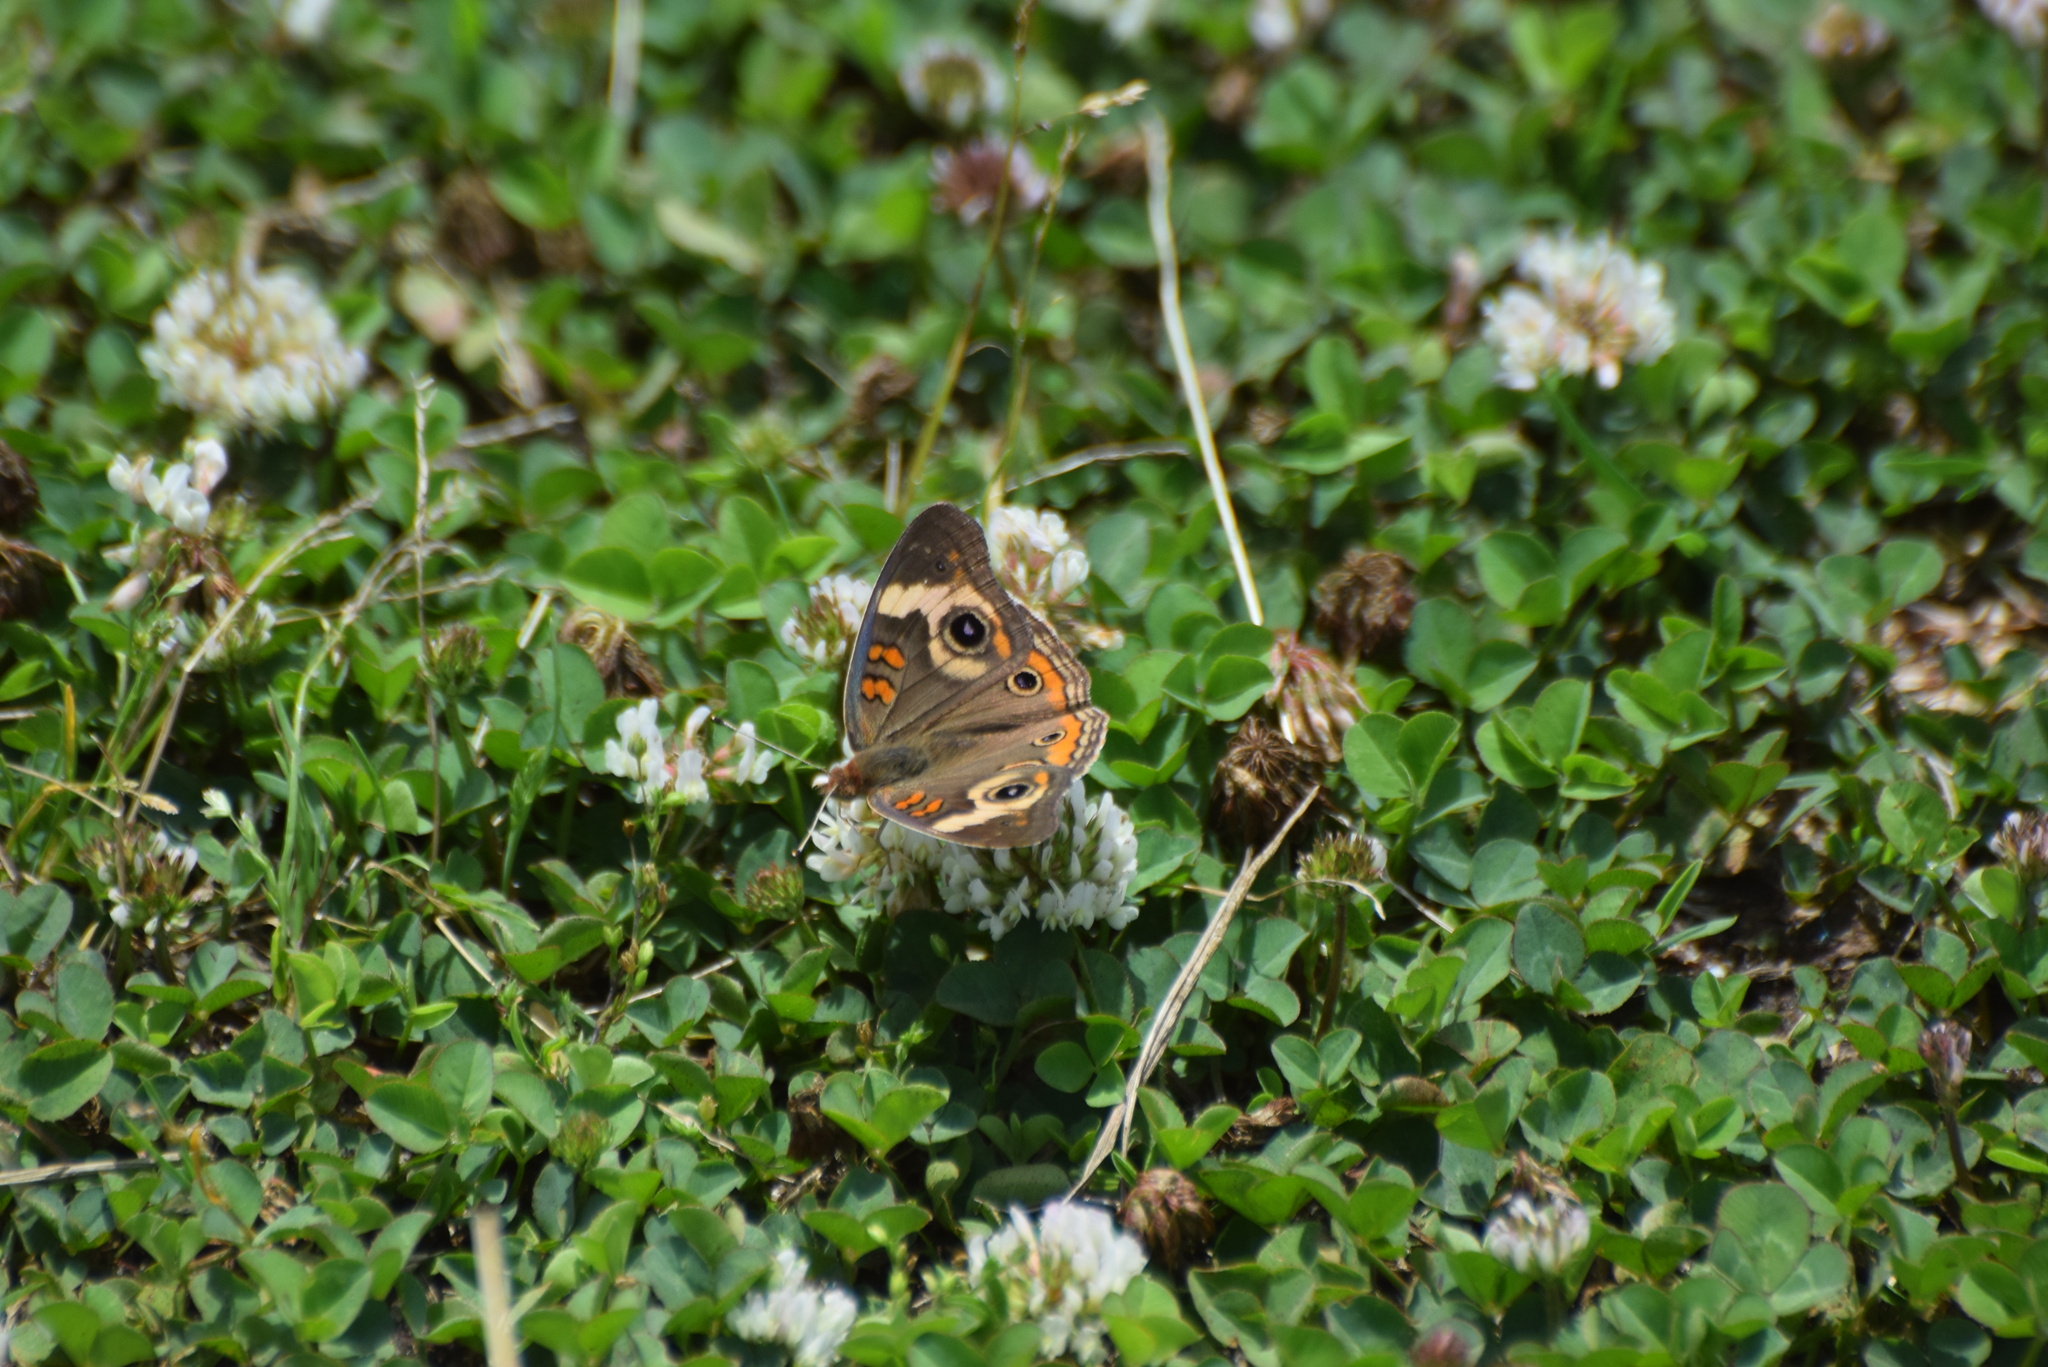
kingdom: Animalia
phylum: Arthropoda
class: Insecta
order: Lepidoptera
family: Nymphalidae
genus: Junonia
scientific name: Junonia coenia
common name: Common buckeye
